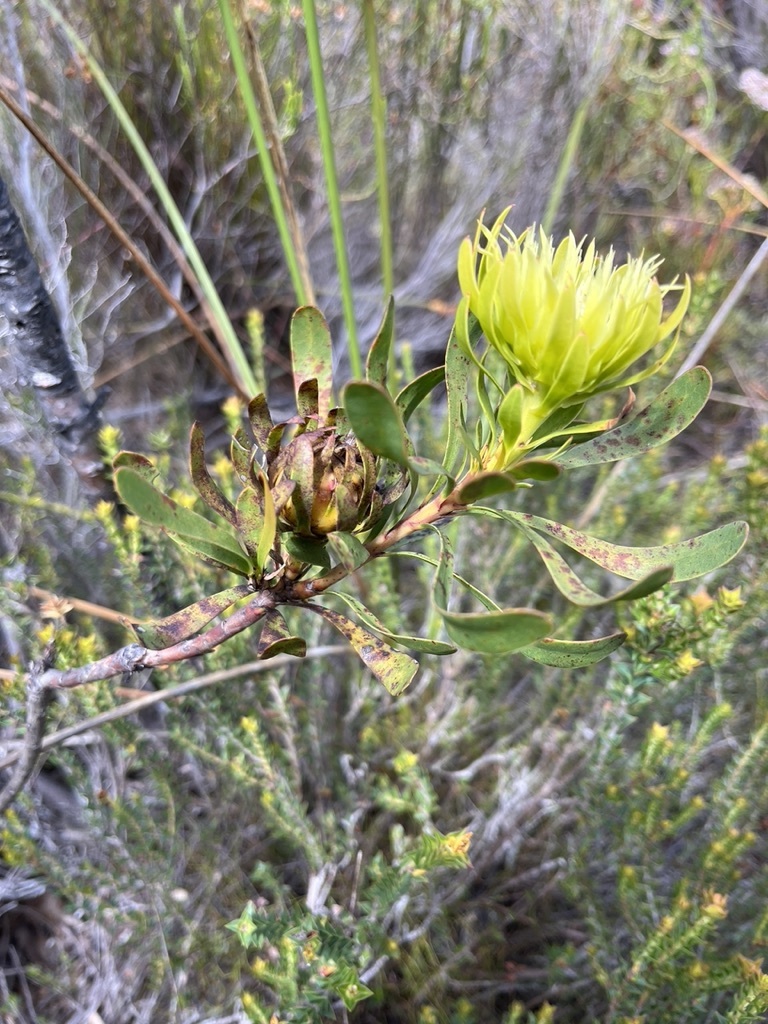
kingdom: Plantae
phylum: Tracheophyta
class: Magnoliopsida
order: Proteales
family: Proteaceae
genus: Aulax
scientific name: Aulax umbellata
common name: Broad-leaf featherbush
